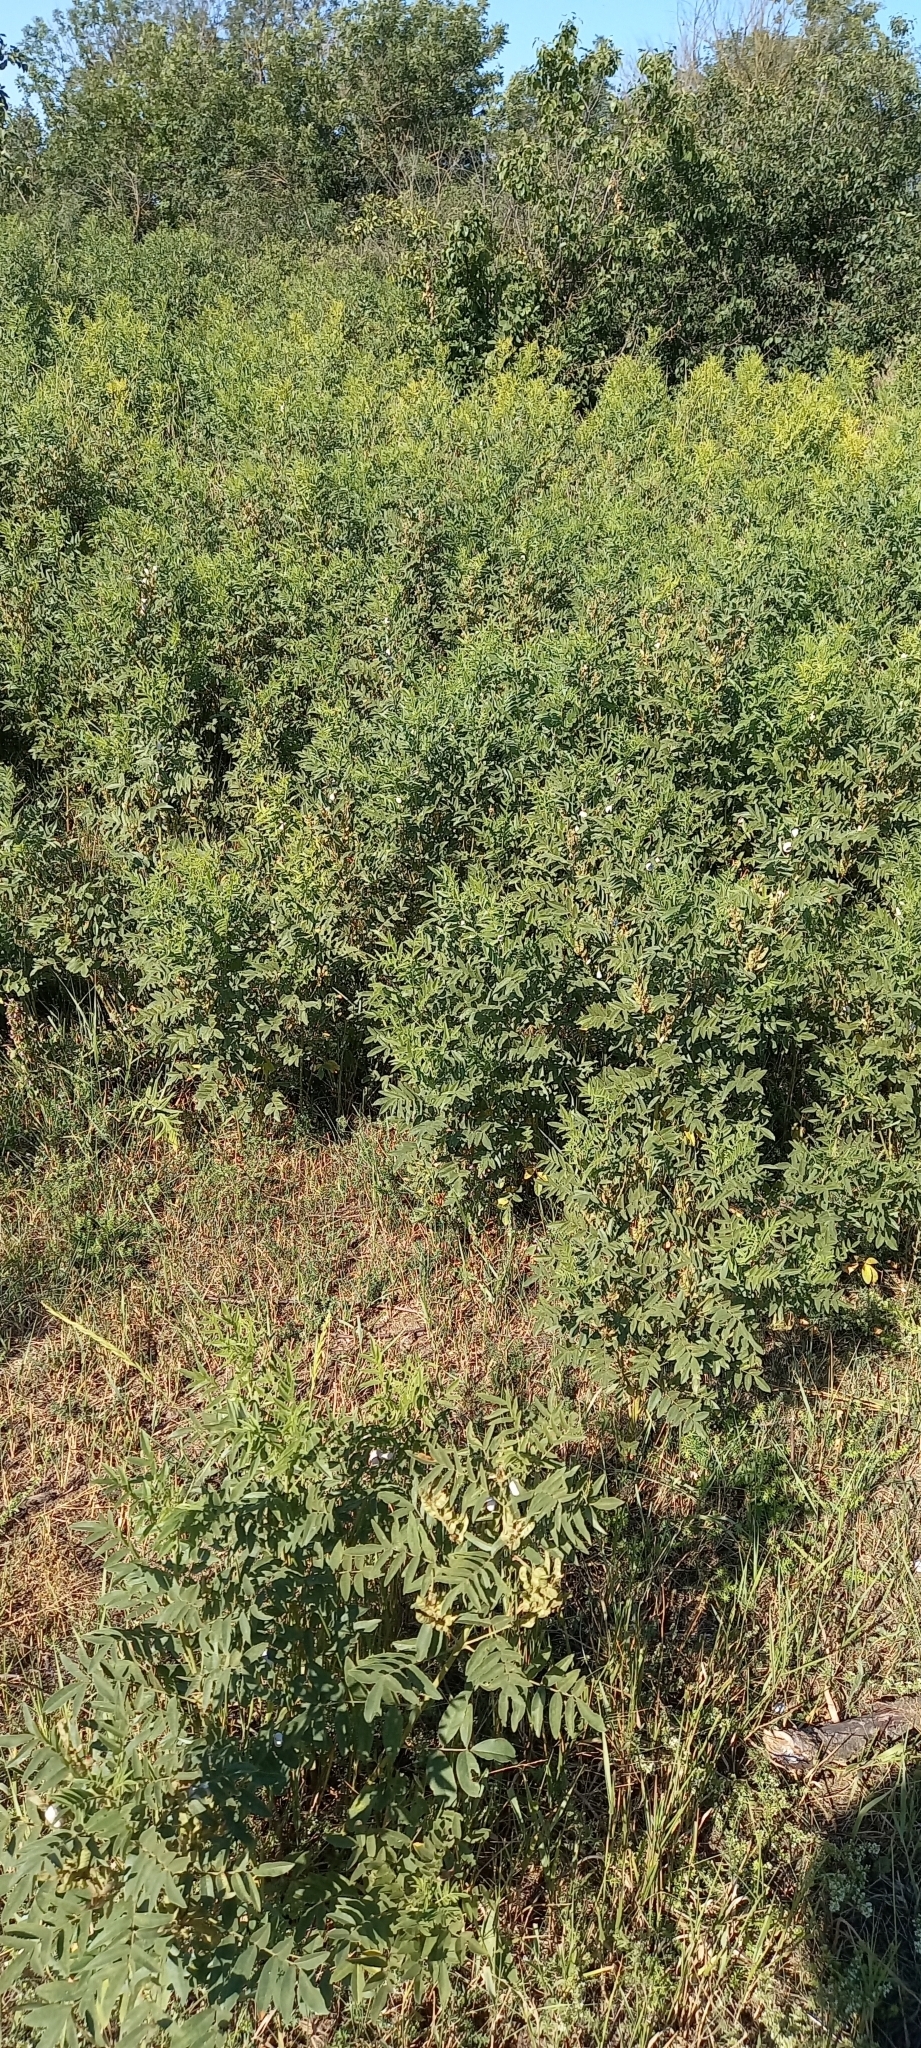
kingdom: Plantae
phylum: Tracheophyta
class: Magnoliopsida
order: Fabales
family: Fabaceae
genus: Glycyrrhiza
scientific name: Glycyrrhiza glabra
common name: Liquorice
